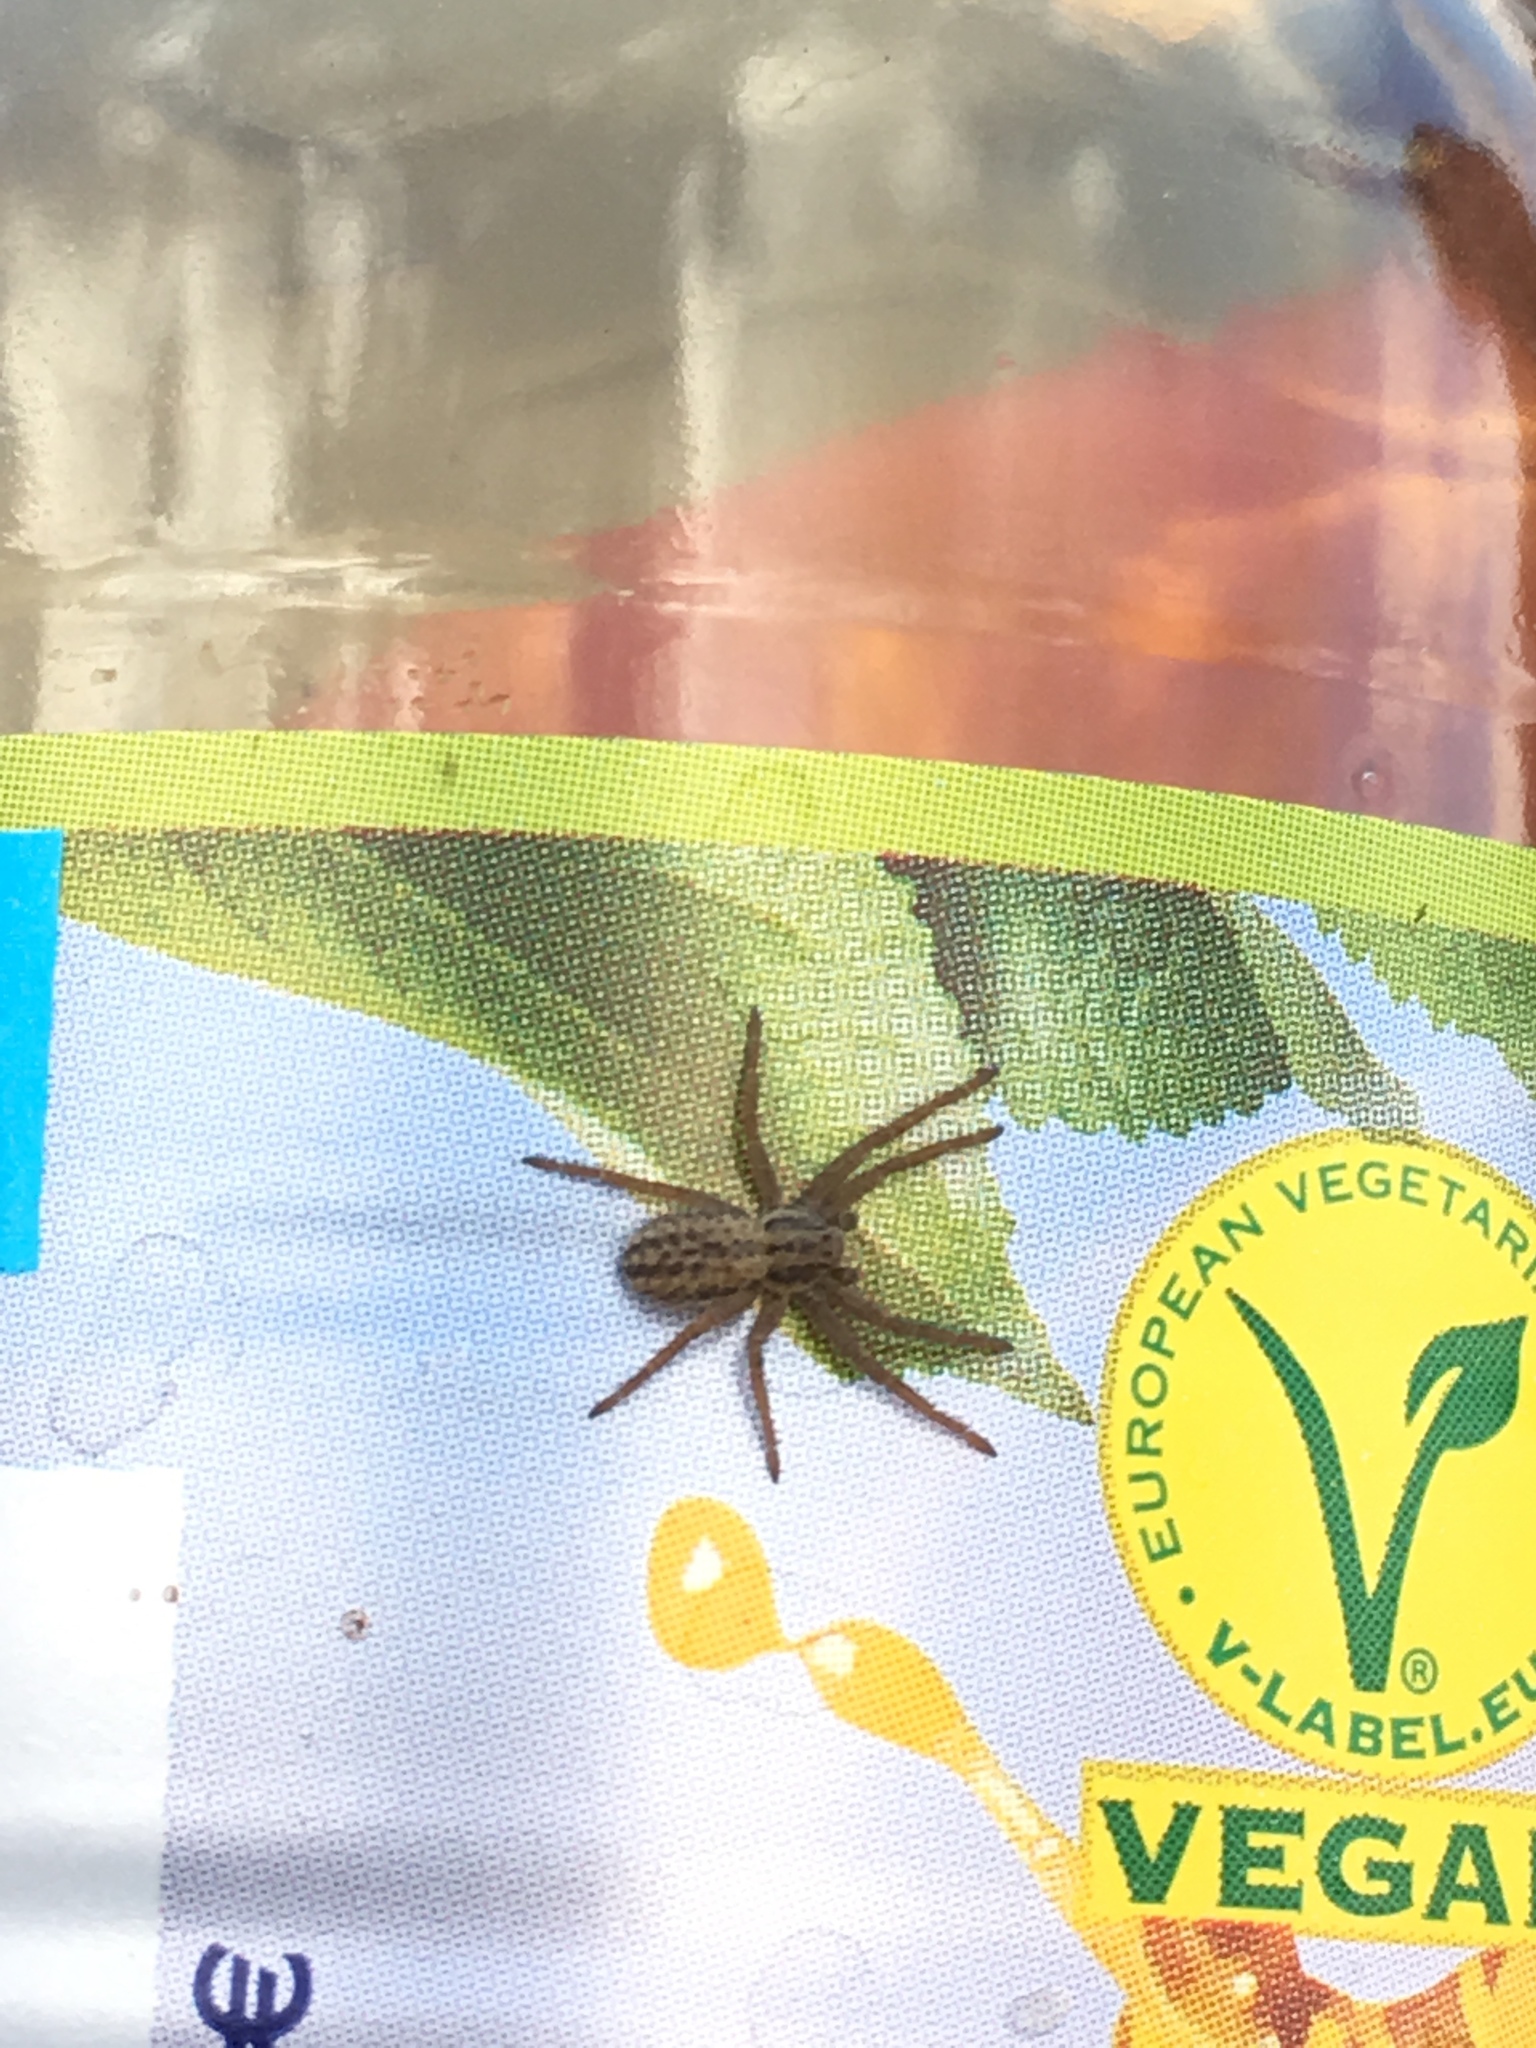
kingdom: Animalia
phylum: Arthropoda
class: Arachnida
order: Araneae
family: Philodromidae
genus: Thanatus
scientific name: Thanatus striatus
